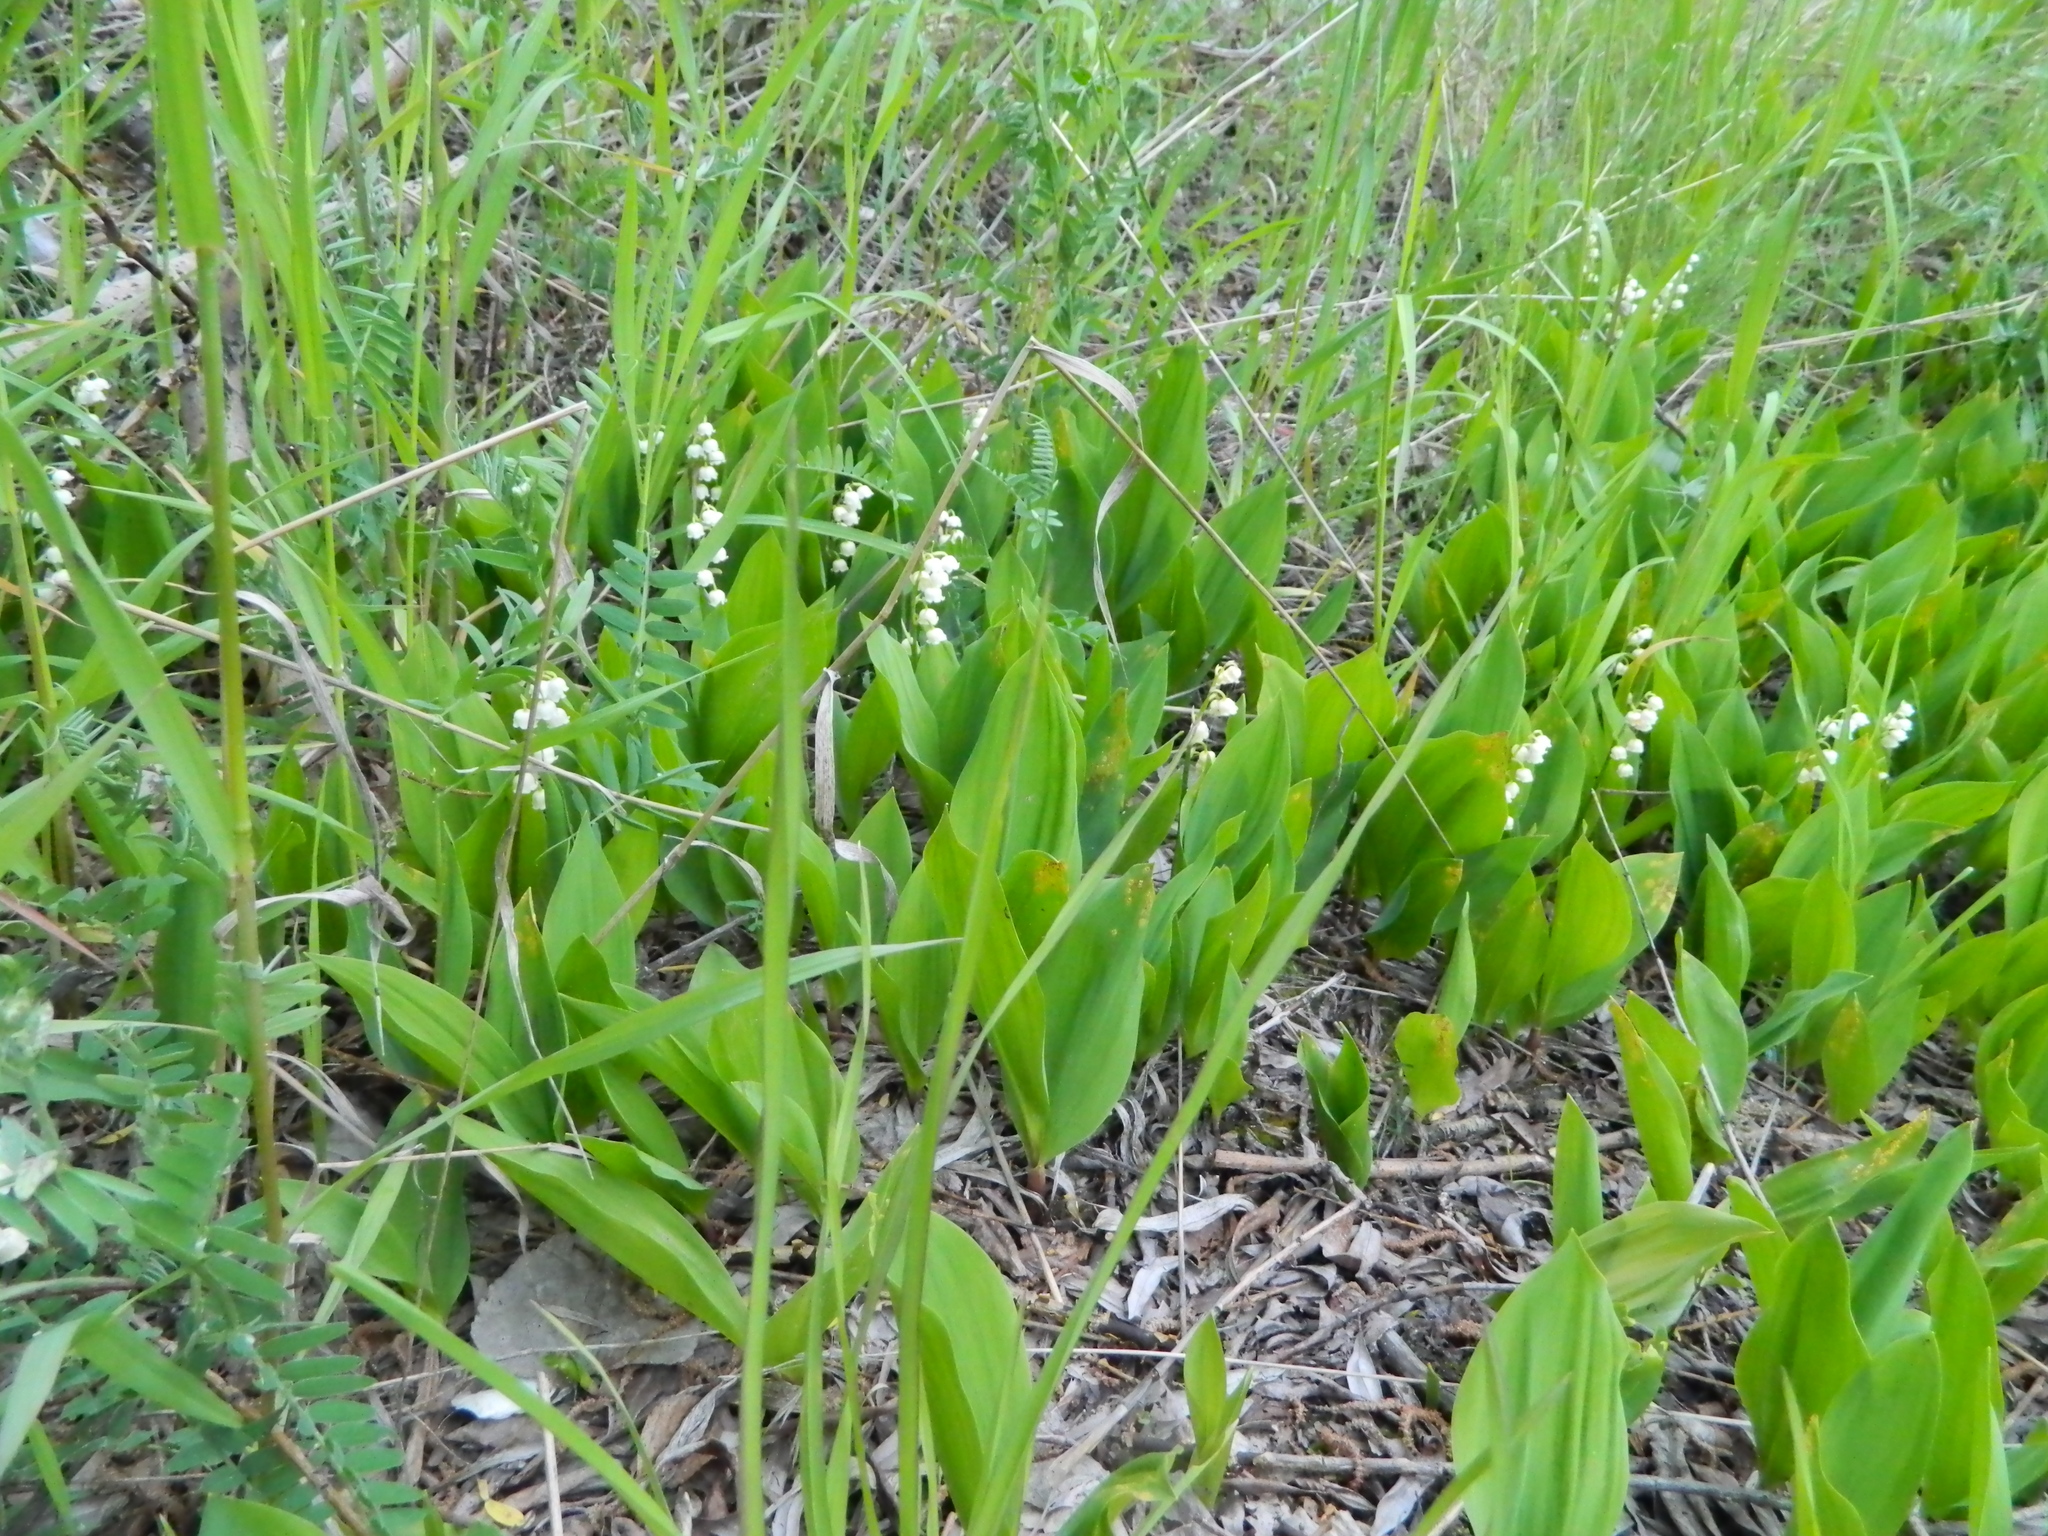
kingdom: Plantae
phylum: Tracheophyta
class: Liliopsida
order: Asparagales
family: Asparagaceae
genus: Convallaria
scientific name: Convallaria majalis
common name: Lily-of-the-valley
